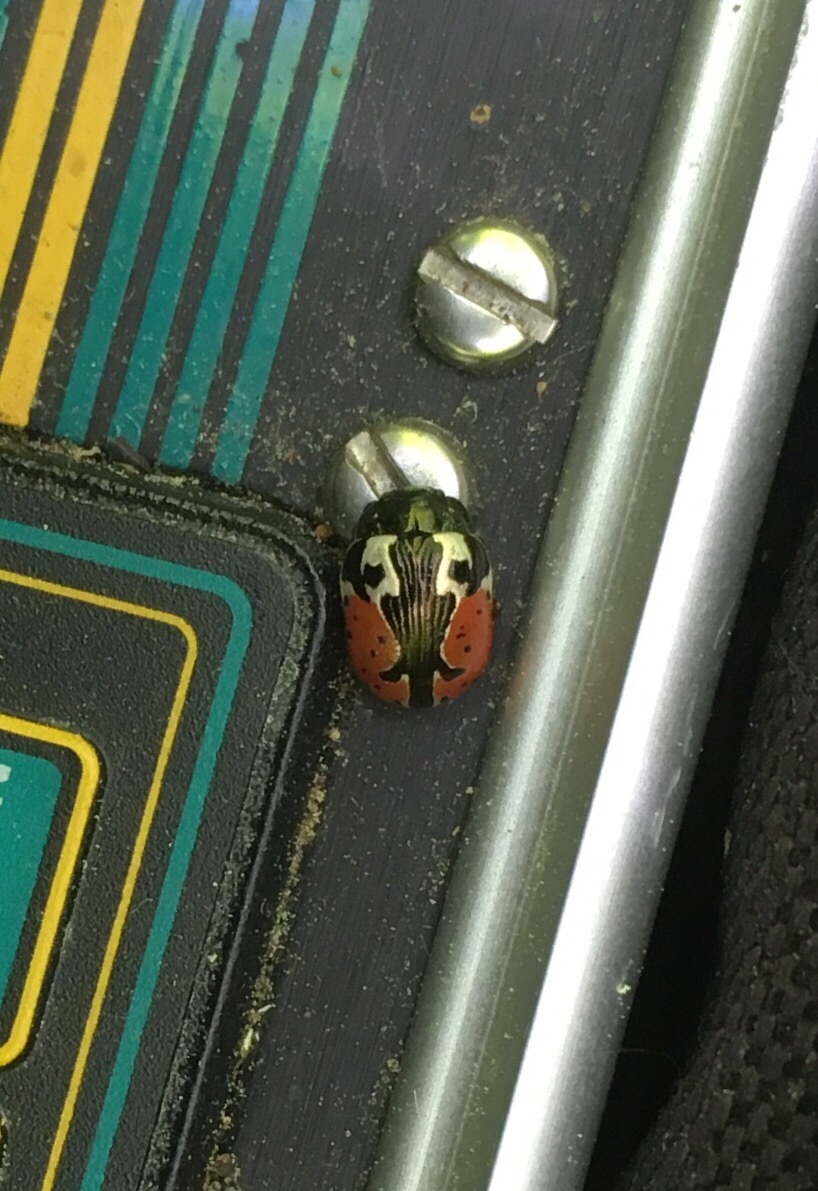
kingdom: Animalia
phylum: Arthropoda
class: Insecta
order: Coleoptera
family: Chrysomelidae
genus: Calligrapha
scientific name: Calligrapha rowena
